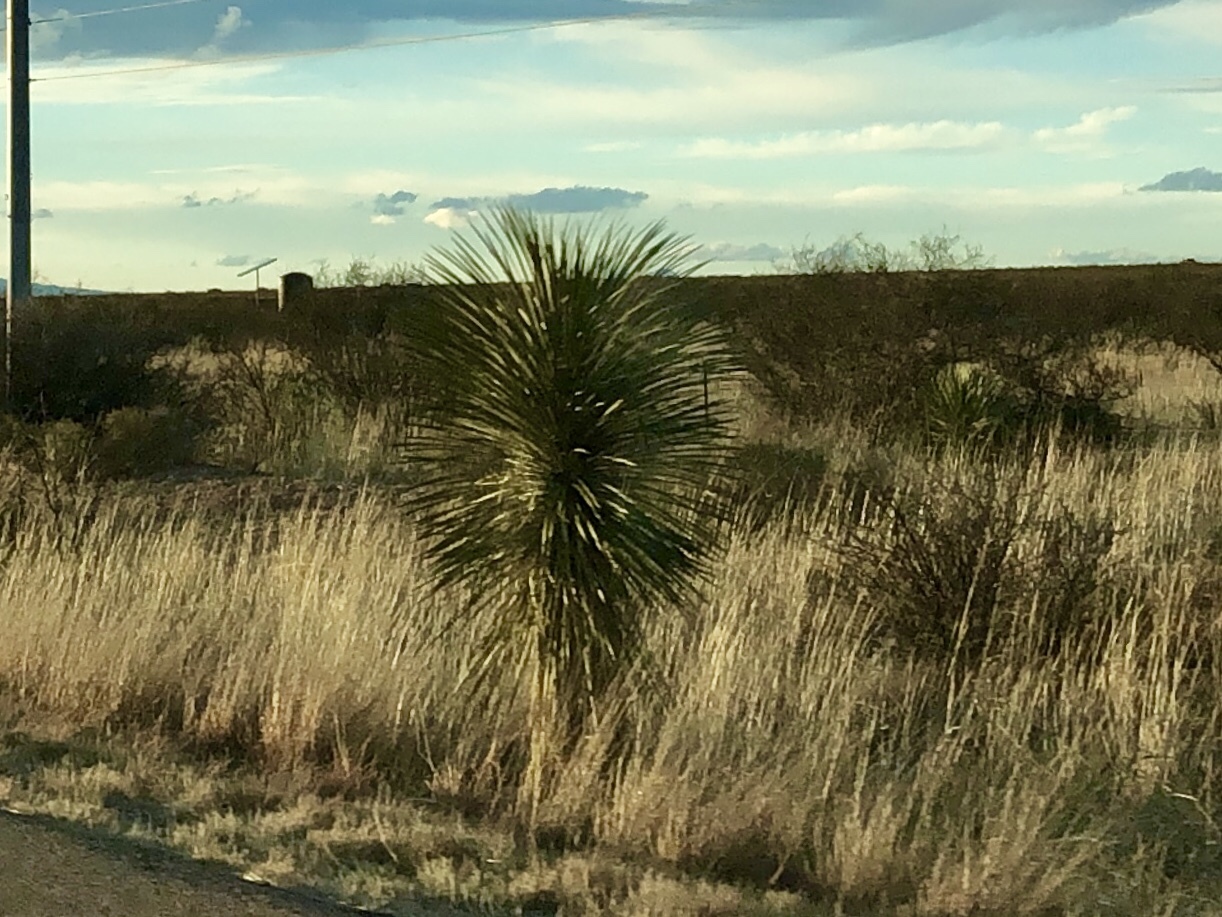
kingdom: Plantae
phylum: Tracheophyta
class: Liliopsida
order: Asparagales
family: Asparagaceae
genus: Yucca
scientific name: Yucca elata
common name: Palmella
